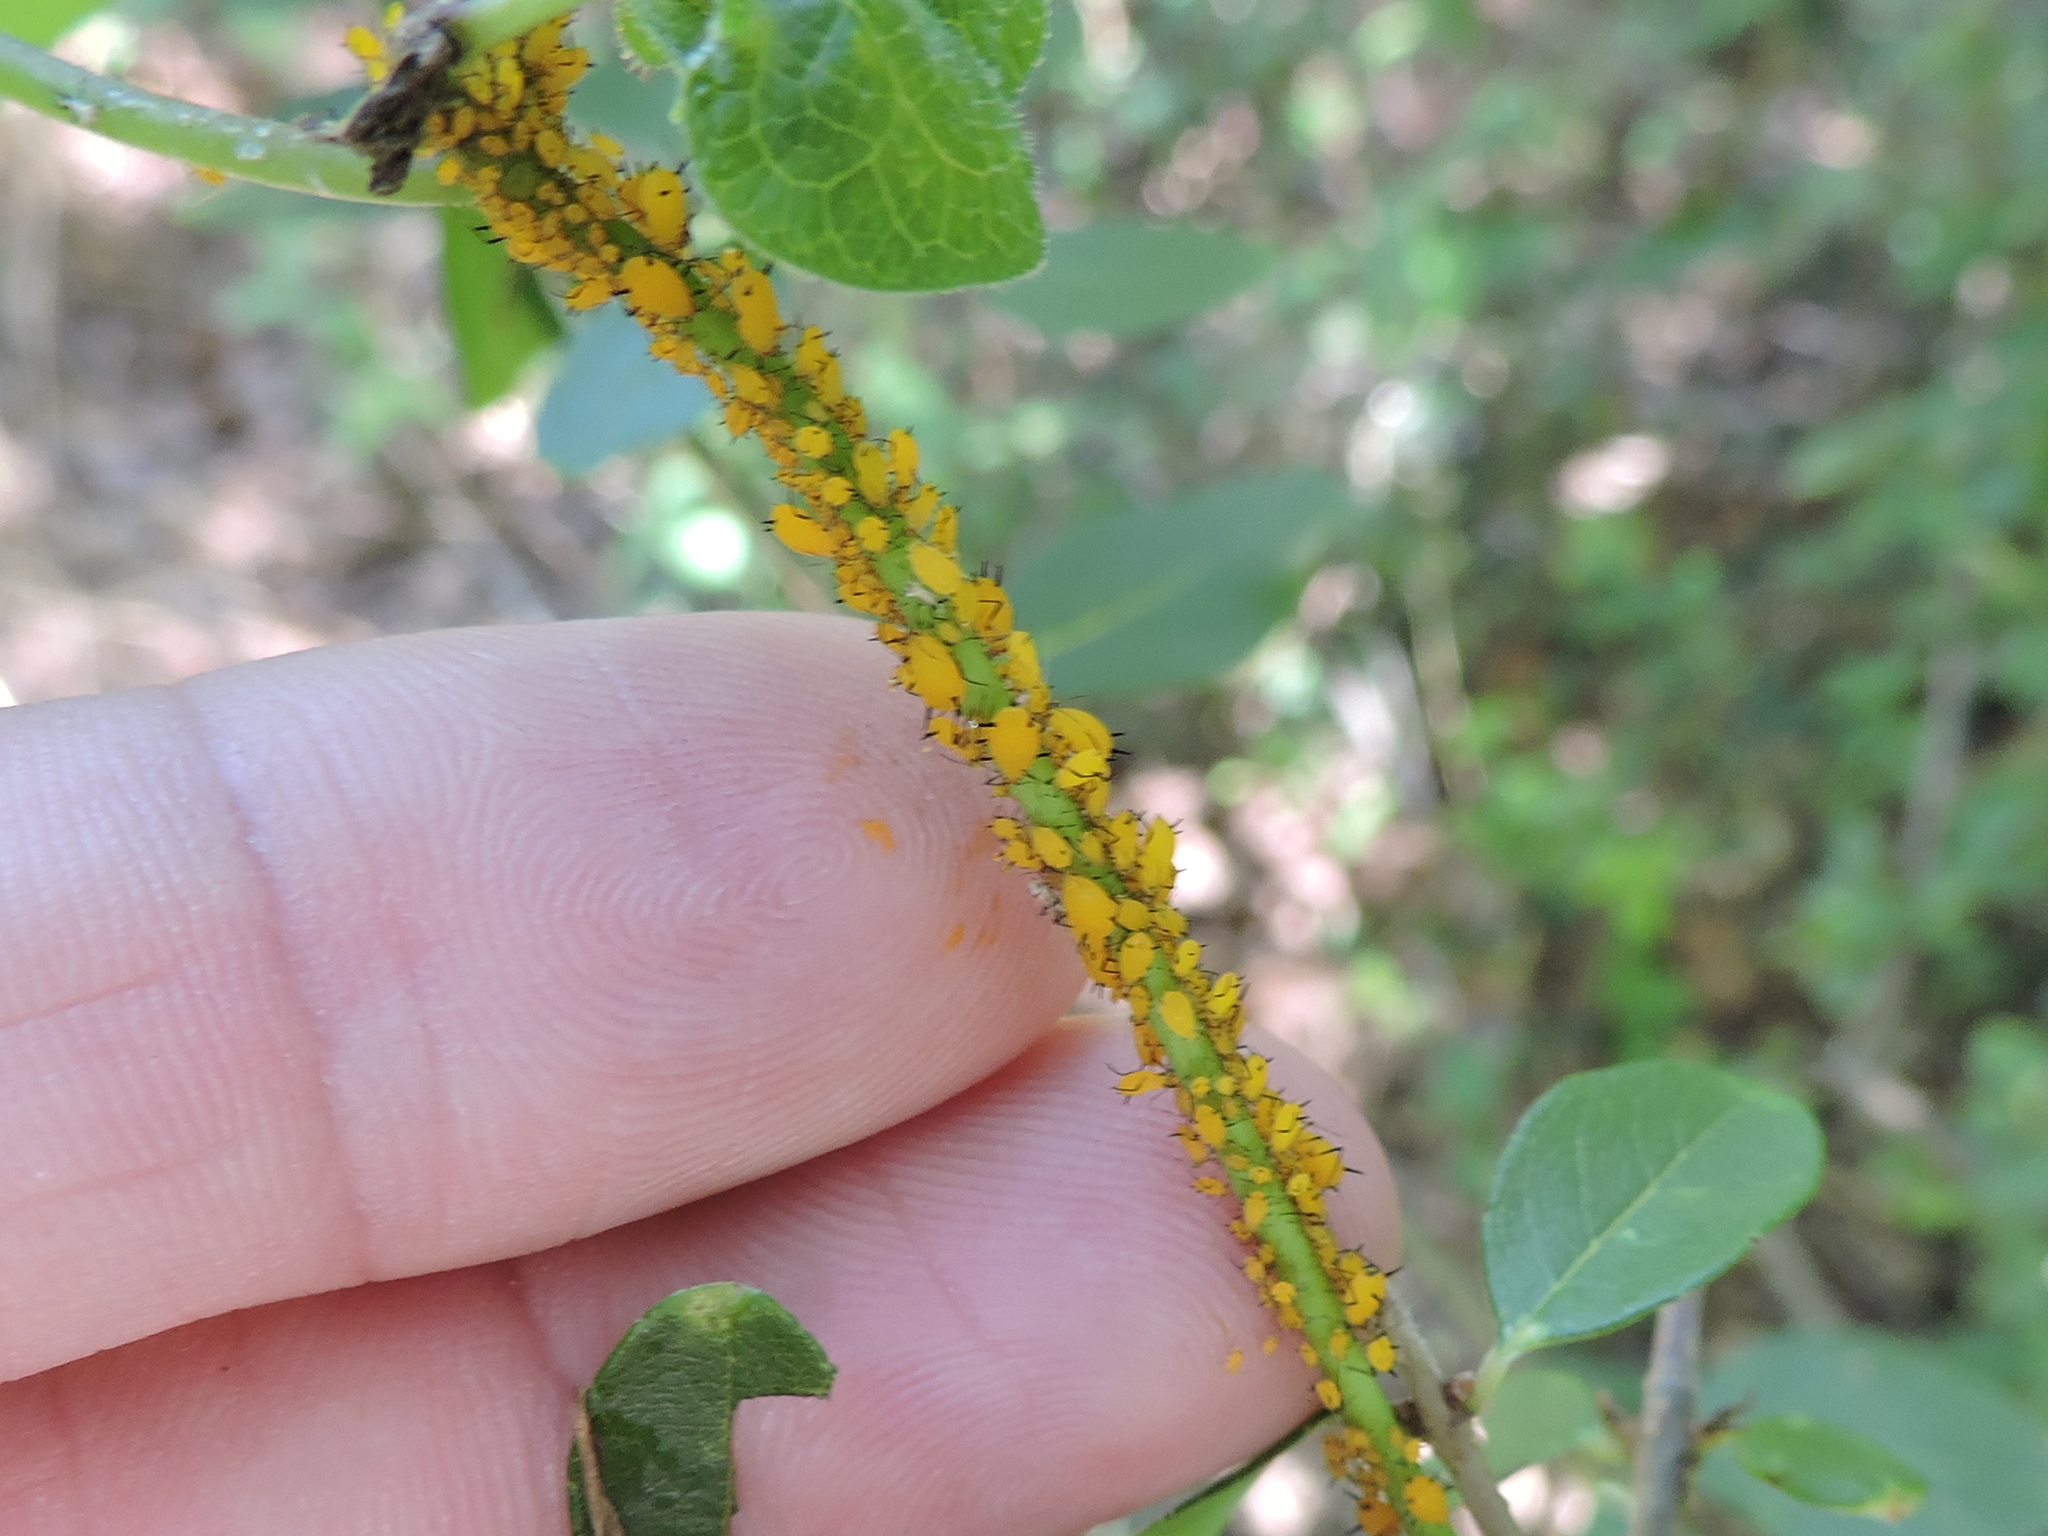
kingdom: Animalia
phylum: Arthropoda
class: Insecta
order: Hemiptera
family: Aphididae
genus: Aphis
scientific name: Aphis nerii
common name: Oleander aphid
